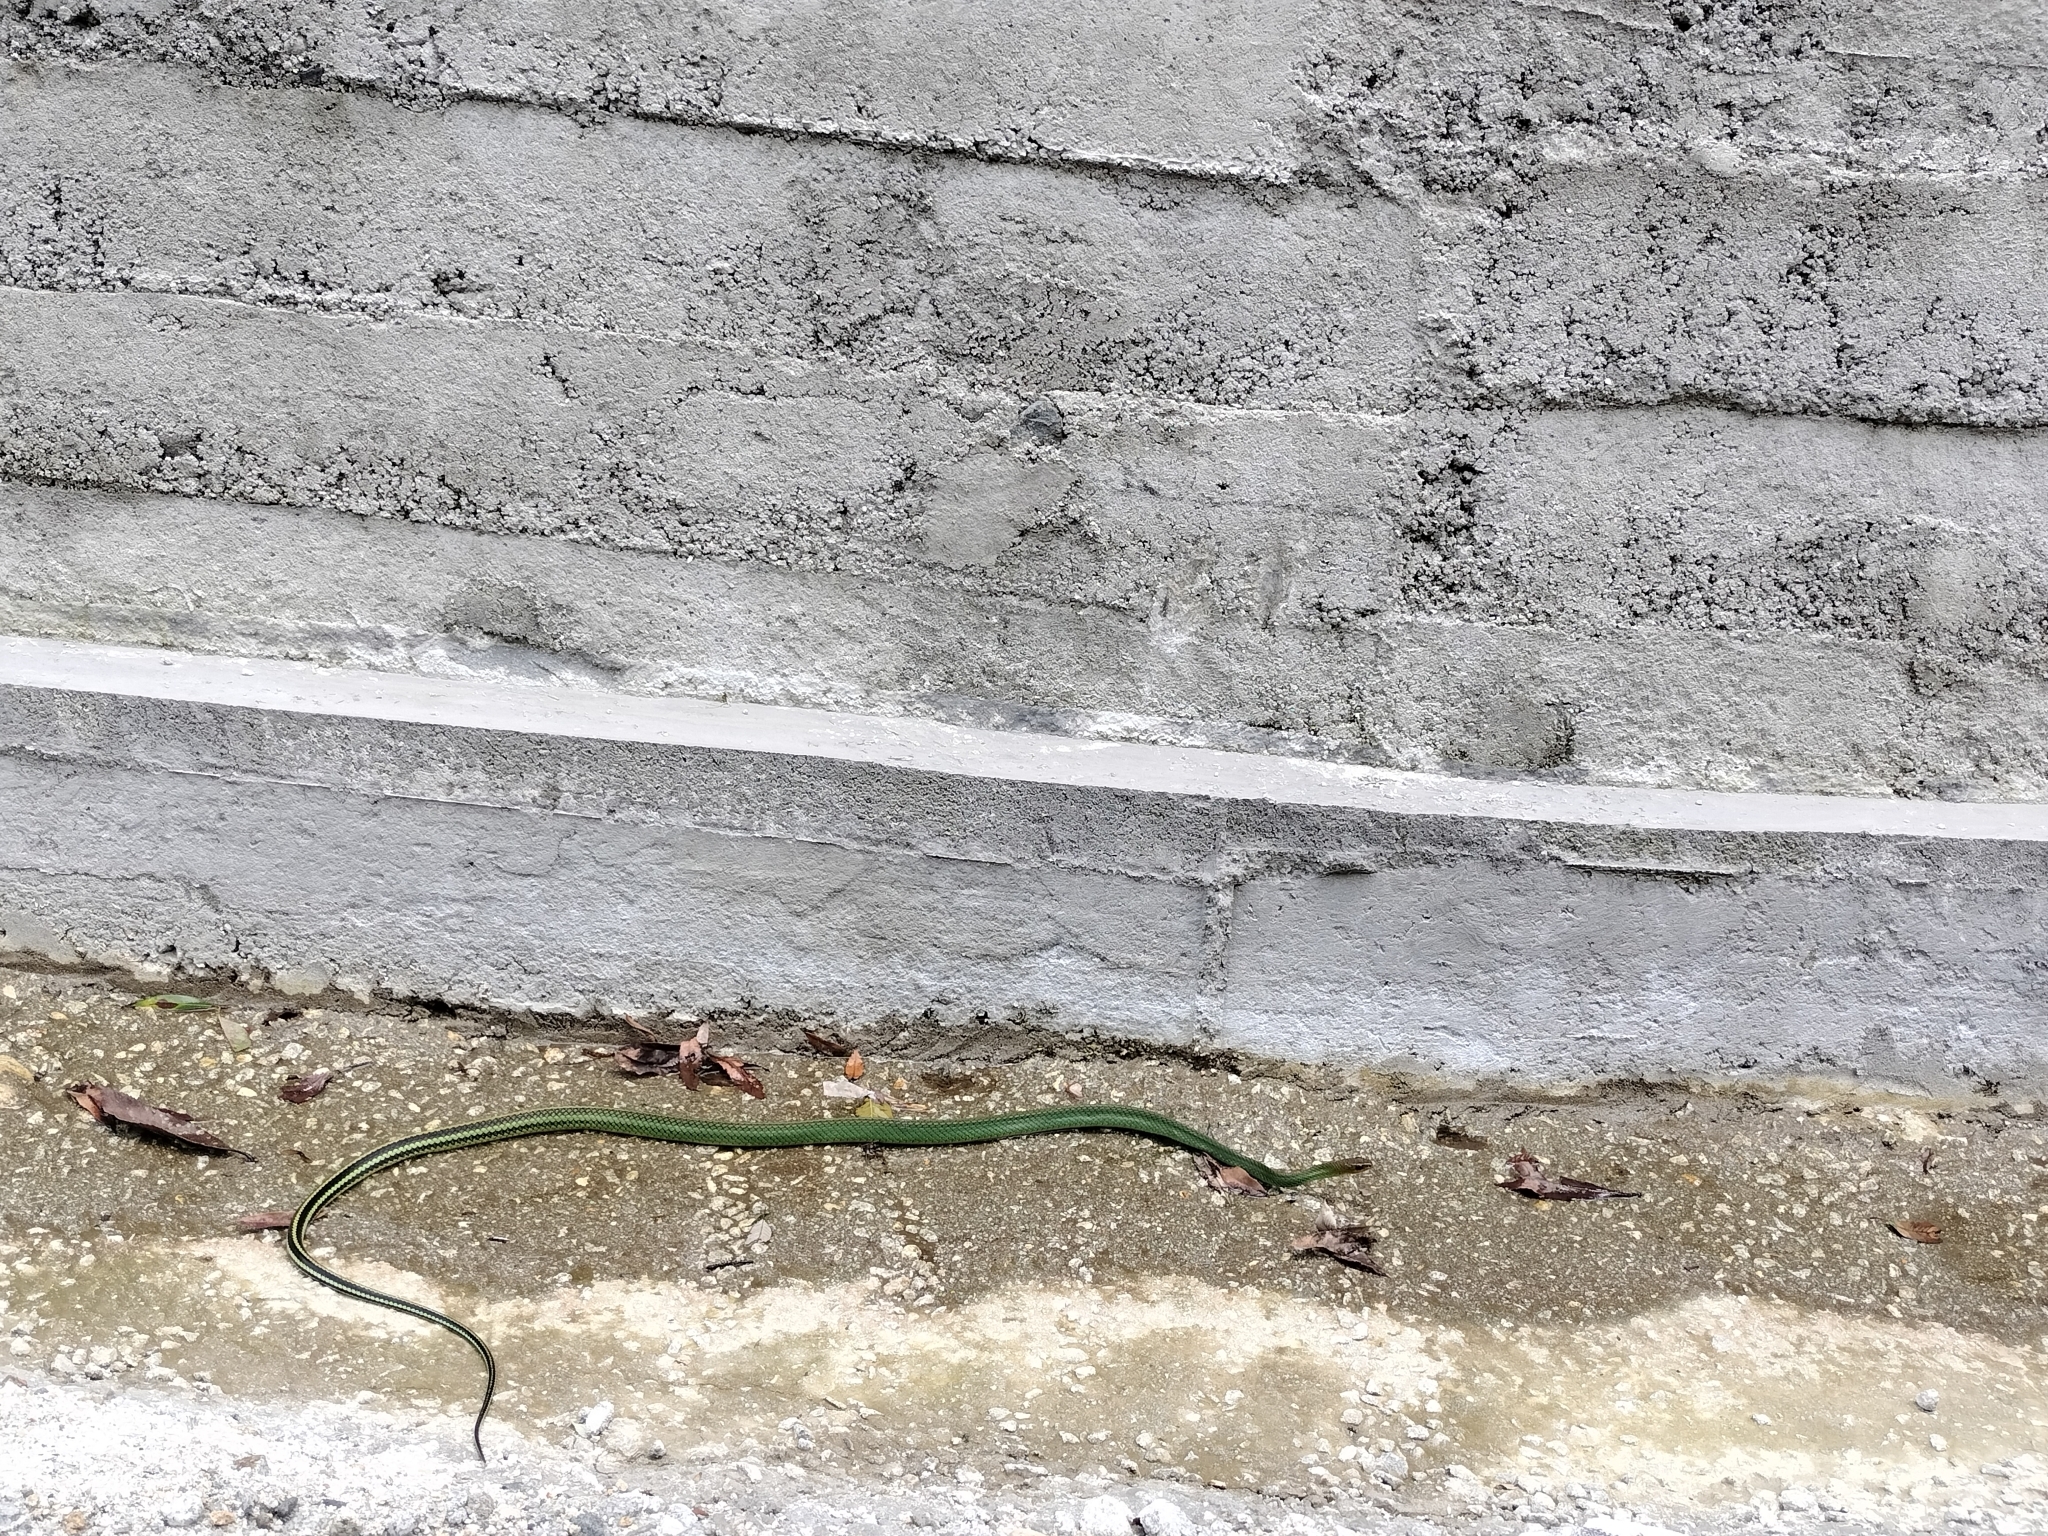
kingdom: Animalia
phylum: Chordata
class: Squamata
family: Colubridae
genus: Ptyas
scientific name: Ptyas nigromarginata
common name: Black-bordered rat snake
